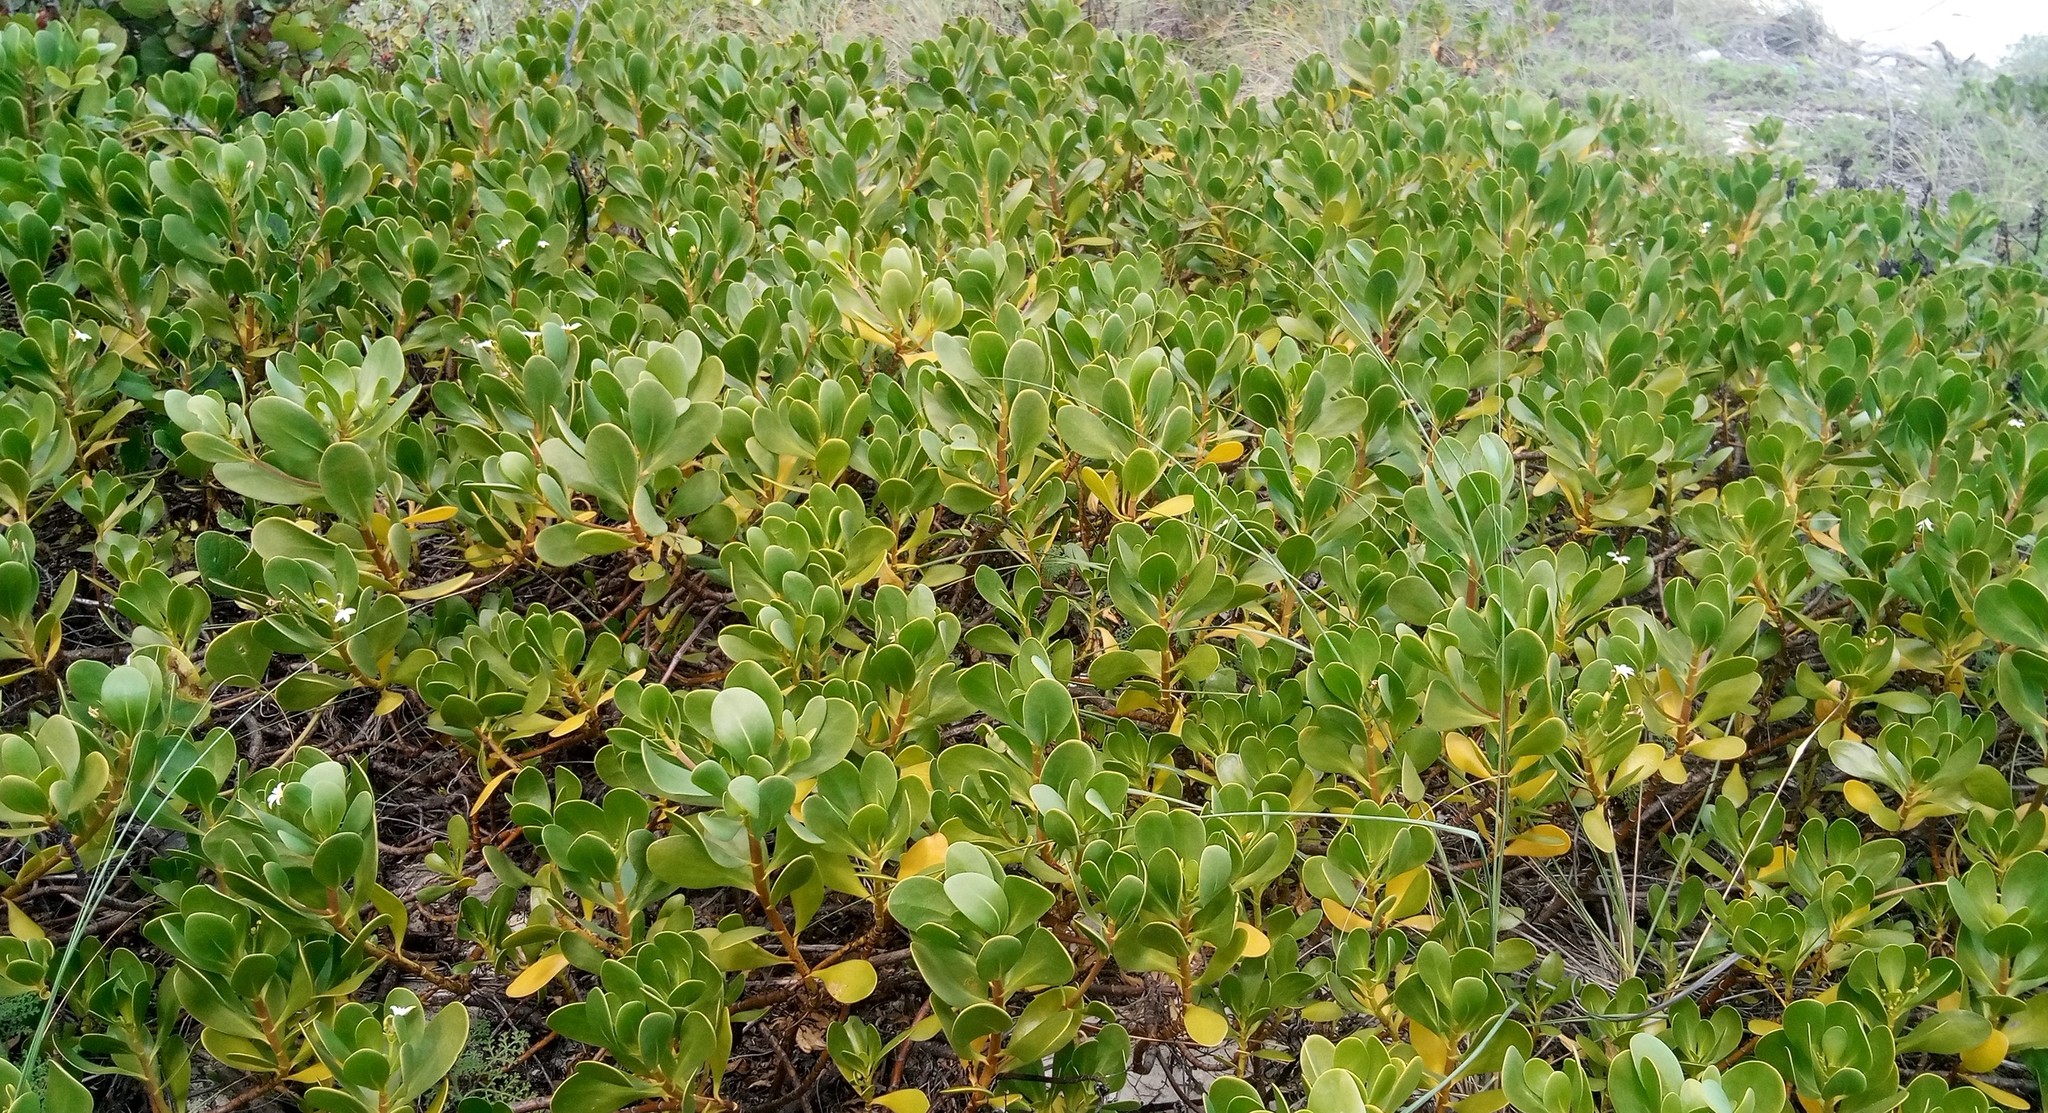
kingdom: Plantae
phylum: Tracheophyta
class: Magnoliopsida
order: Asterales
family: Goodeniaceae
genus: Scaevola
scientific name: Scaevola plumieri
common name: Gull feed
